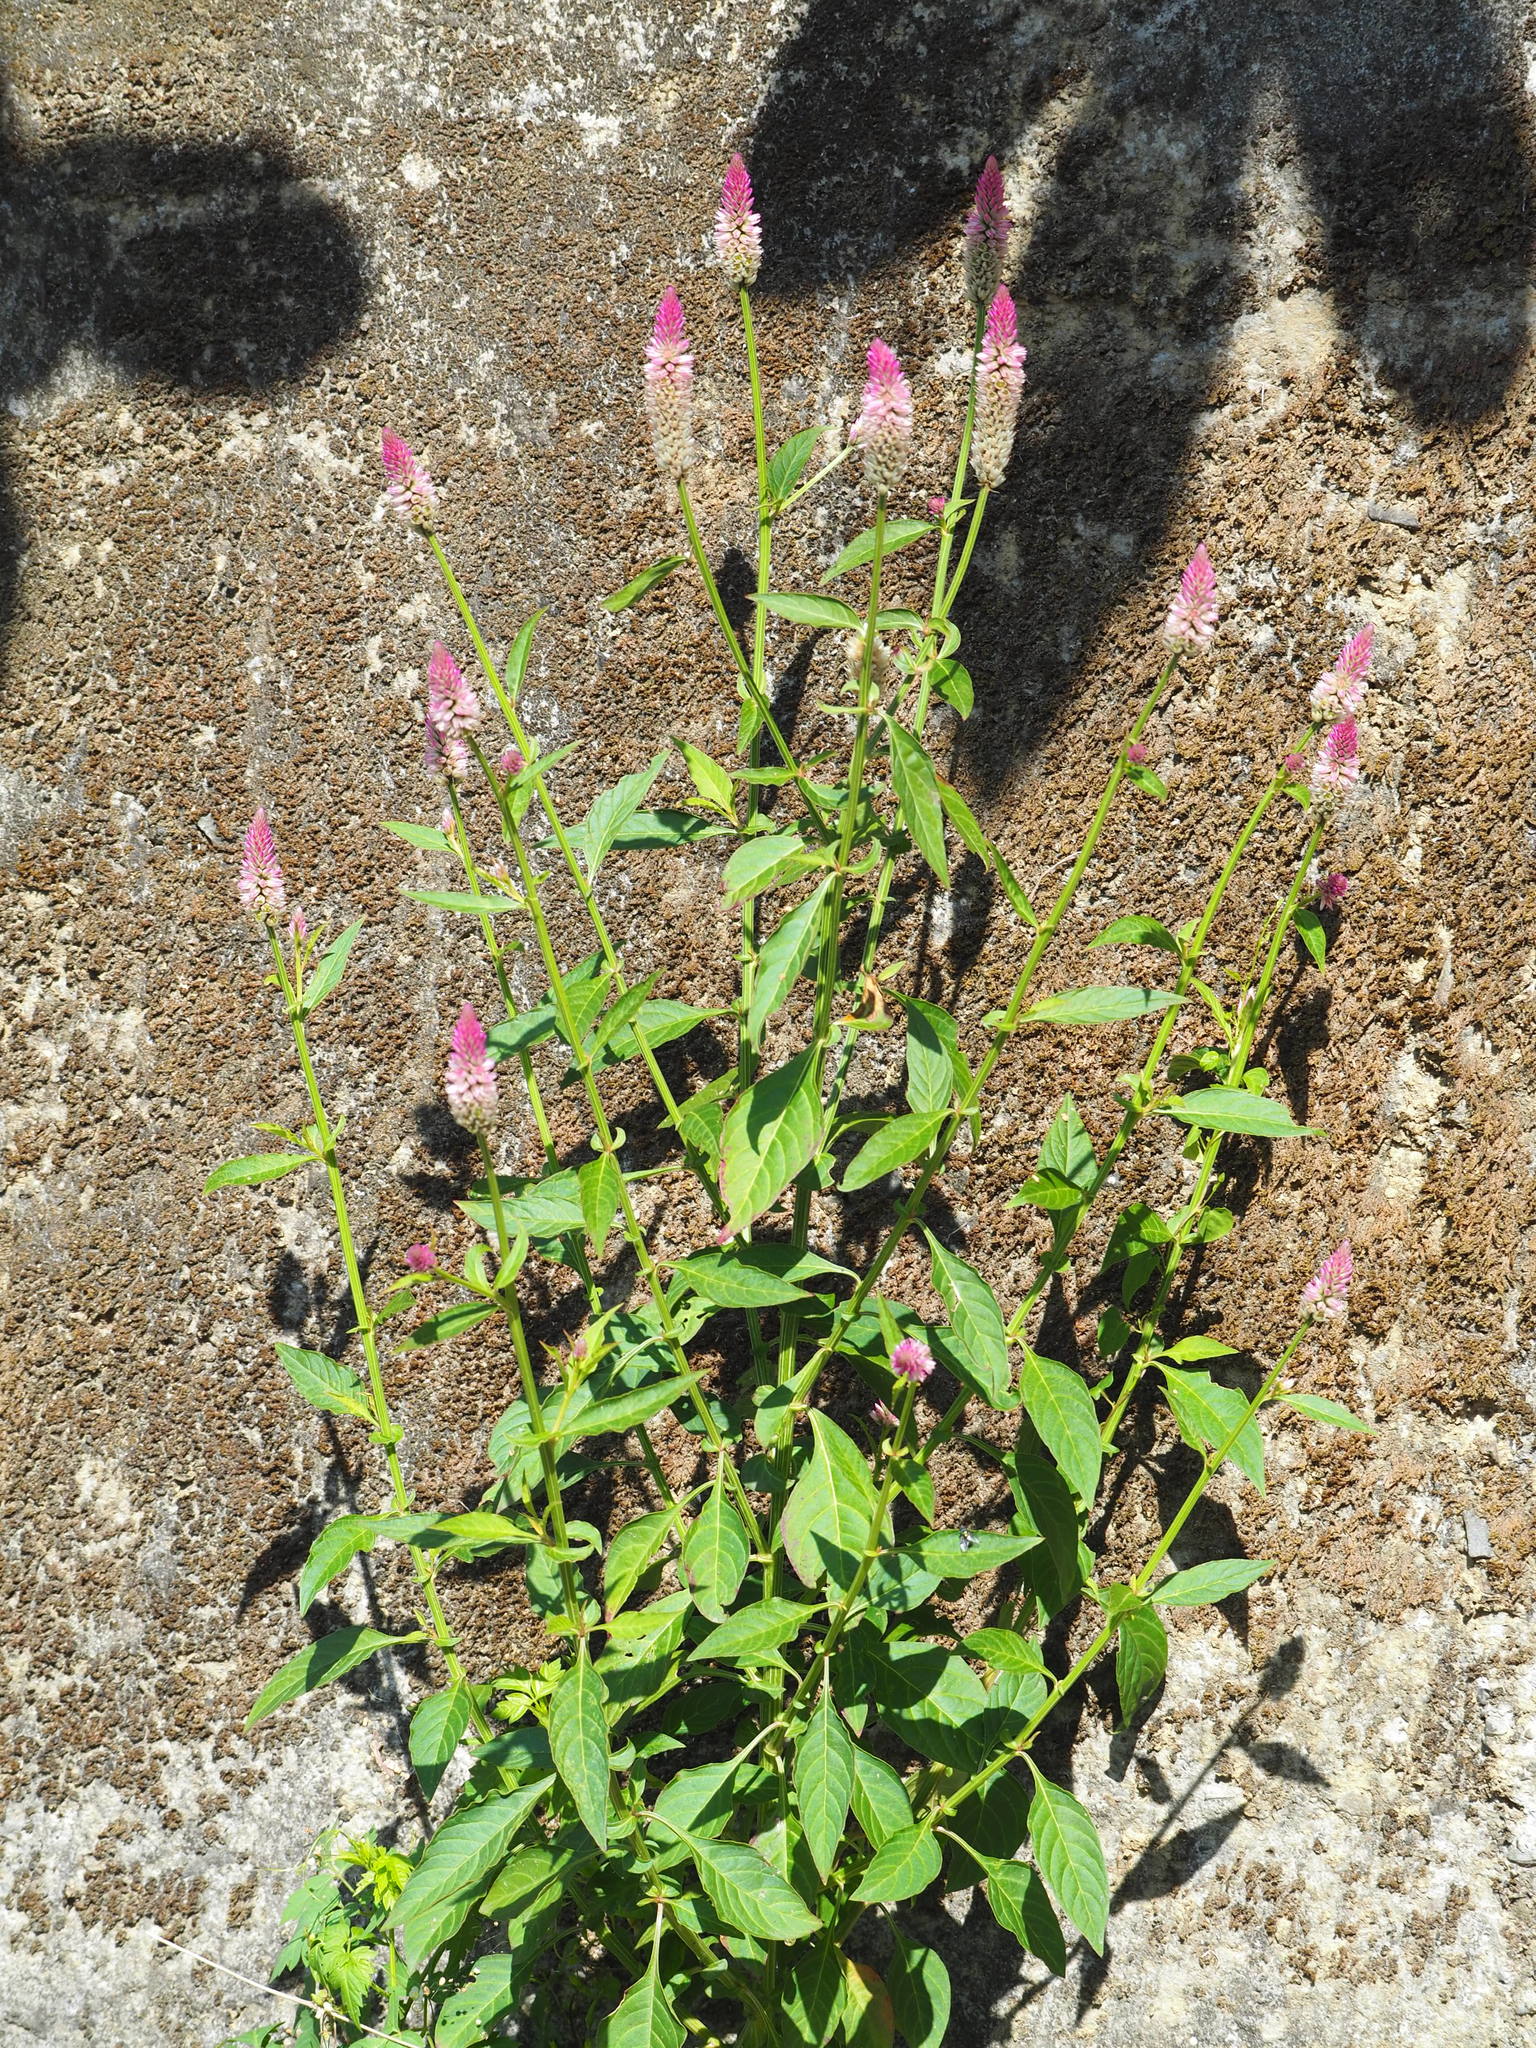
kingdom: Plantae
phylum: Tracheophyta
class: Magnoliopsida
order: Caryophyllales
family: Amaranthaceae
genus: Celosia
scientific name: Celosia argentea
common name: Feather cockscomb
